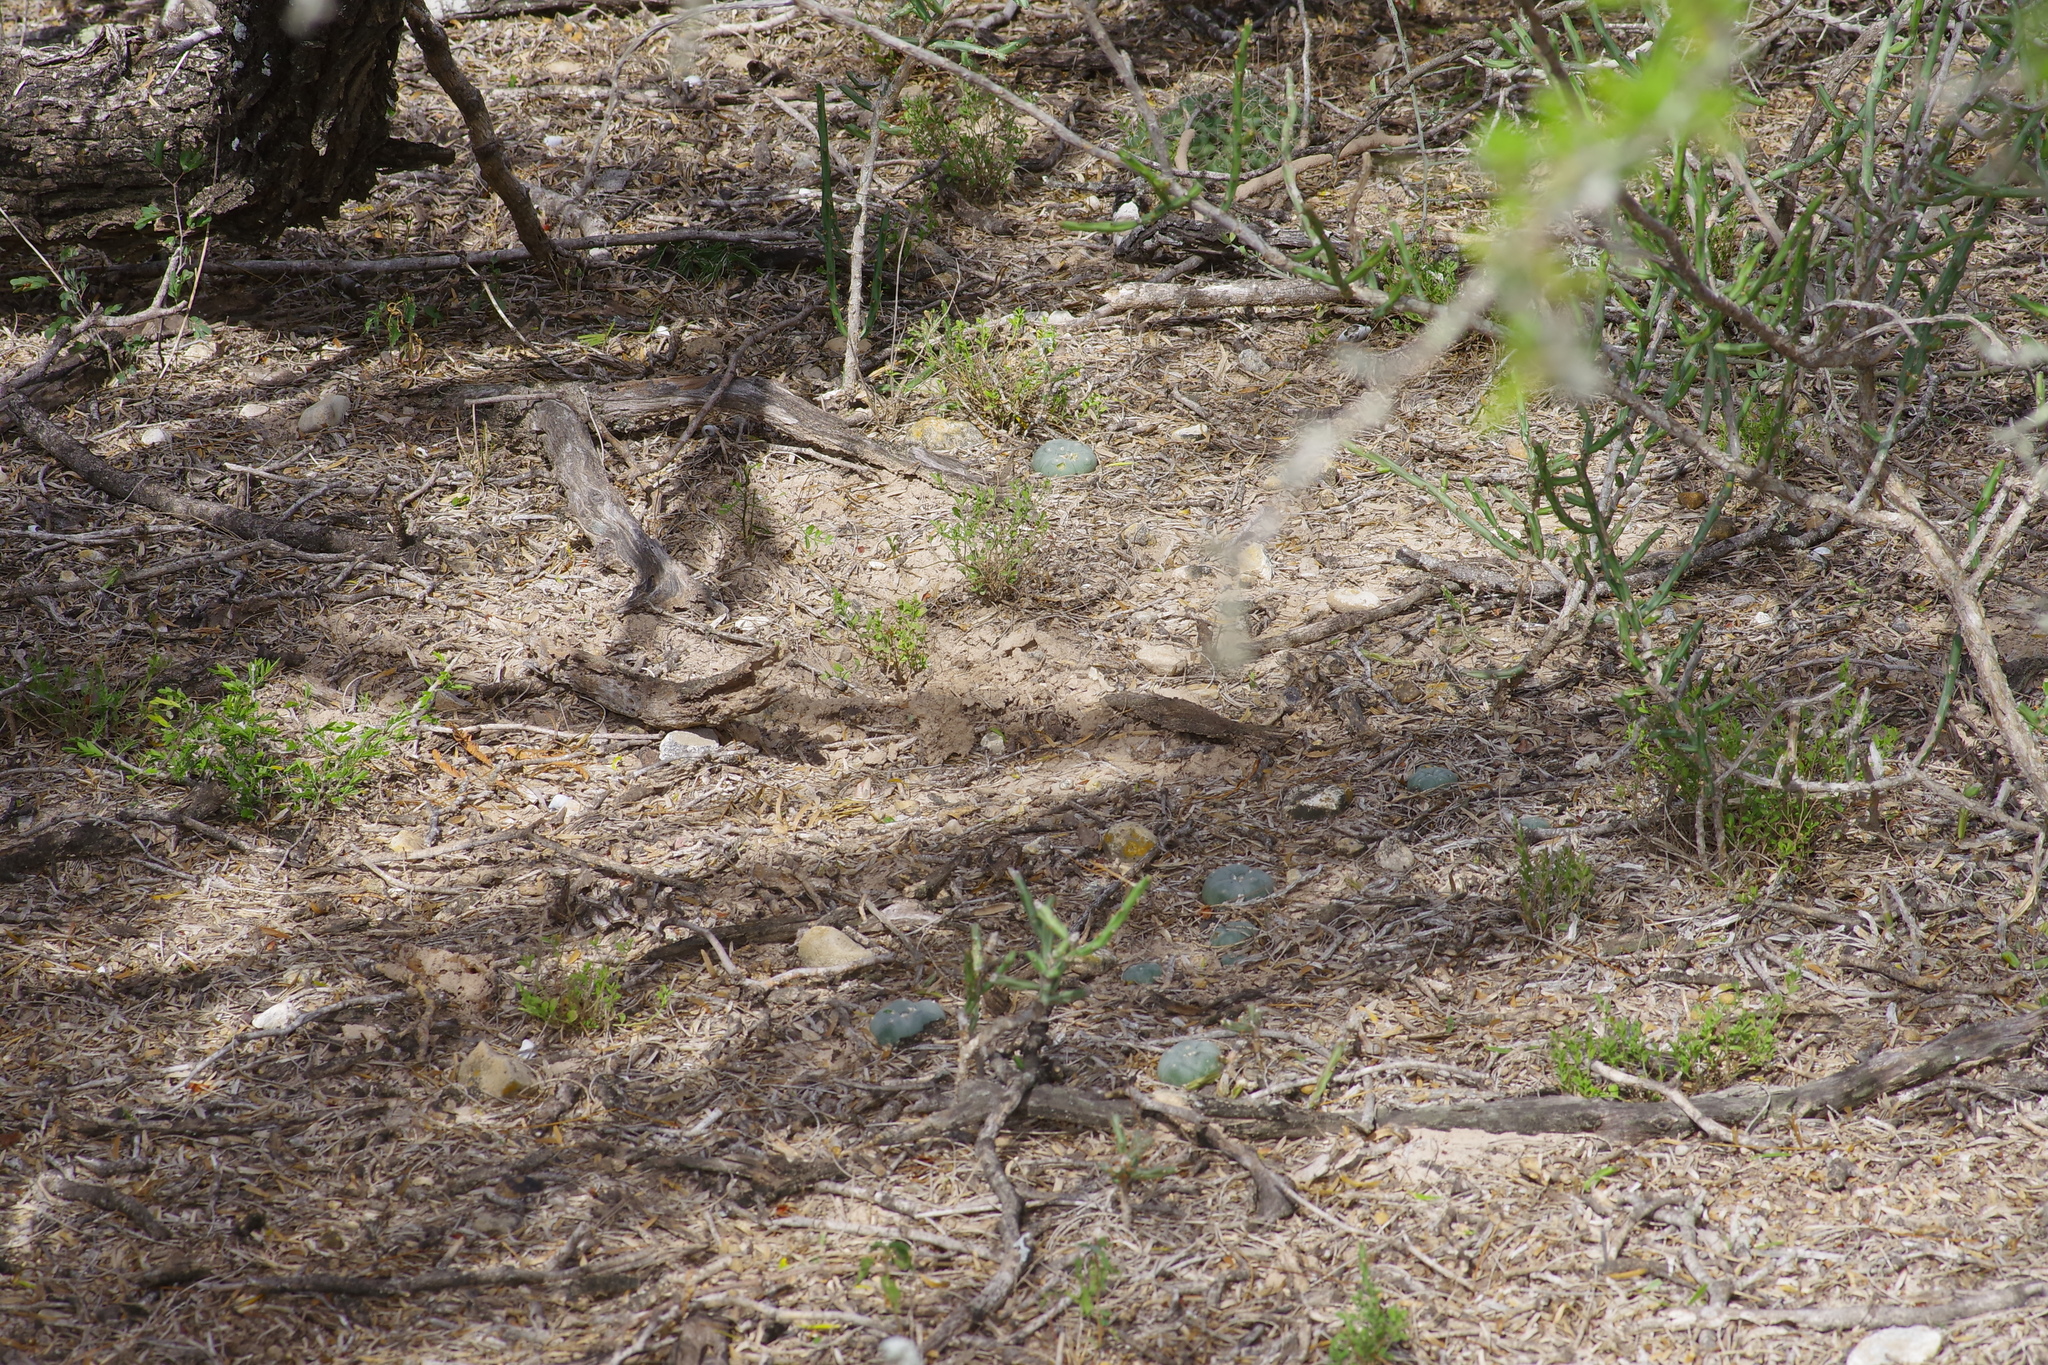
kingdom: Plantae
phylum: Tracheophyta
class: Magnoliopsida
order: Caryophyllales
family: Cactaceae
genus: Lophophora
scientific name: Lophophora williamsii
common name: Indian-dope
